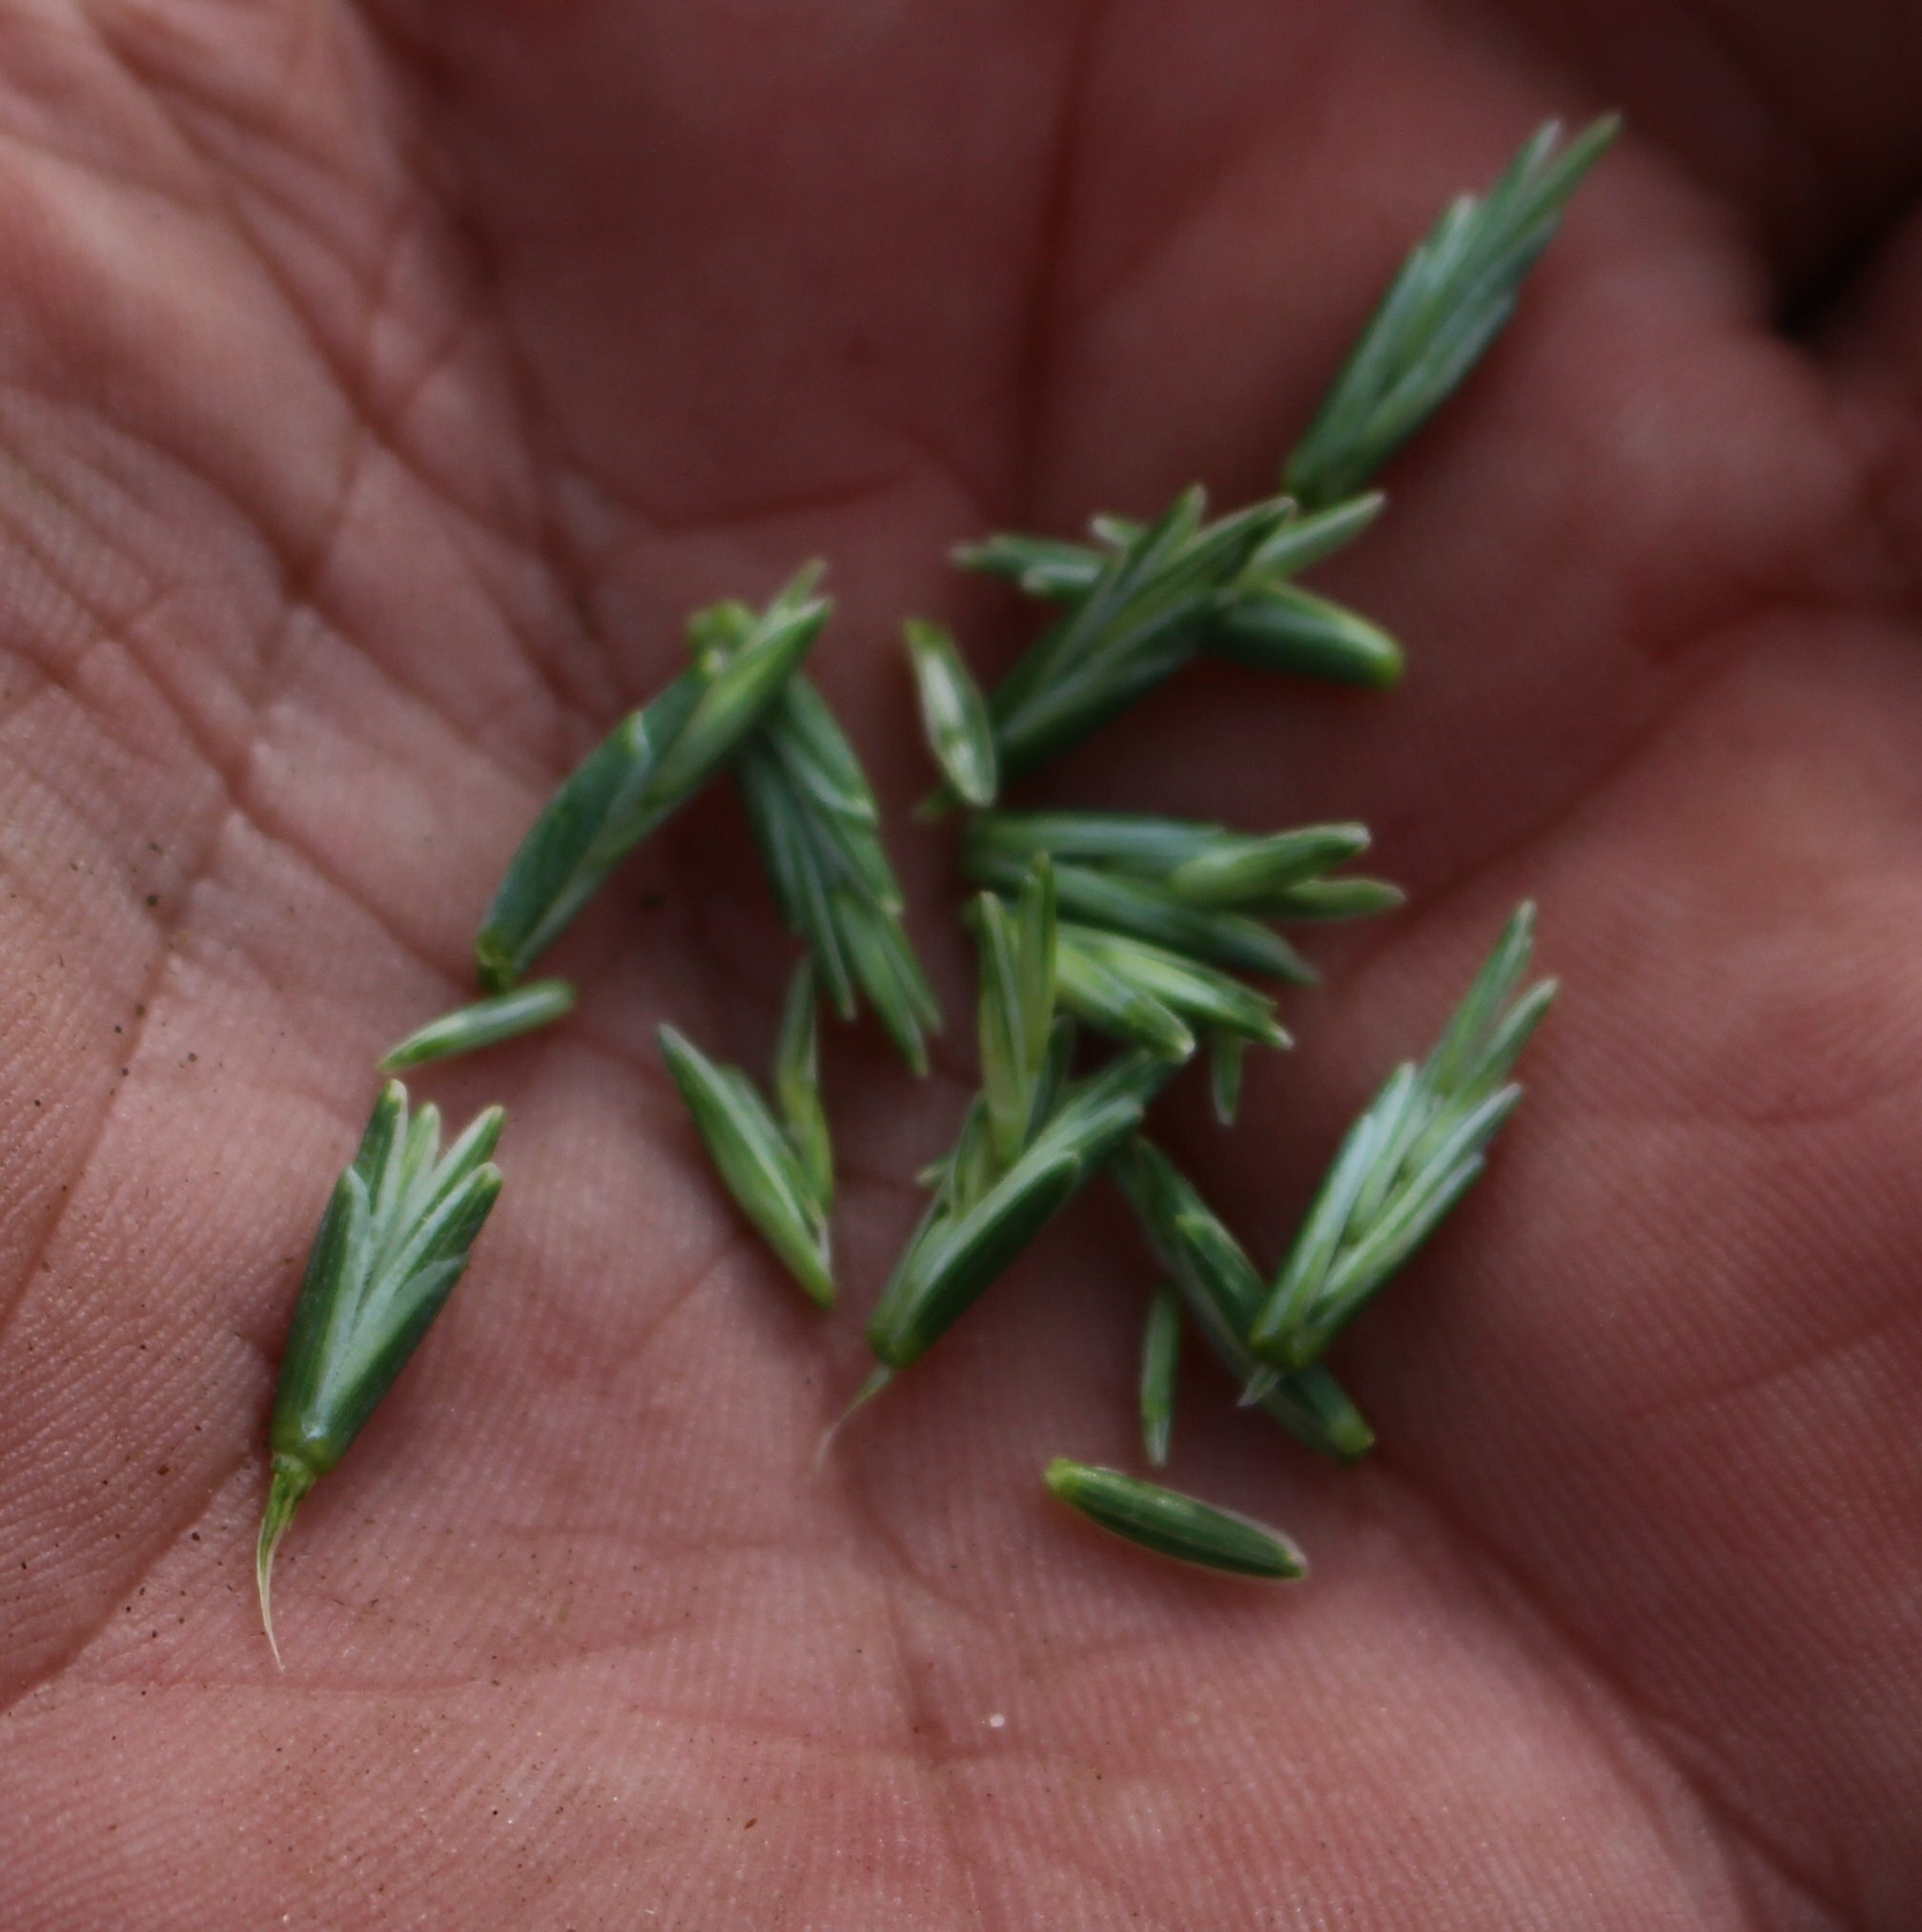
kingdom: Plantae
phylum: Tracheophyta
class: Liliopsida
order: Poales
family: Poaceae
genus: Thinopyrum
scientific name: Thinopyrum intermedium
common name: Intermediate wheatgrass
